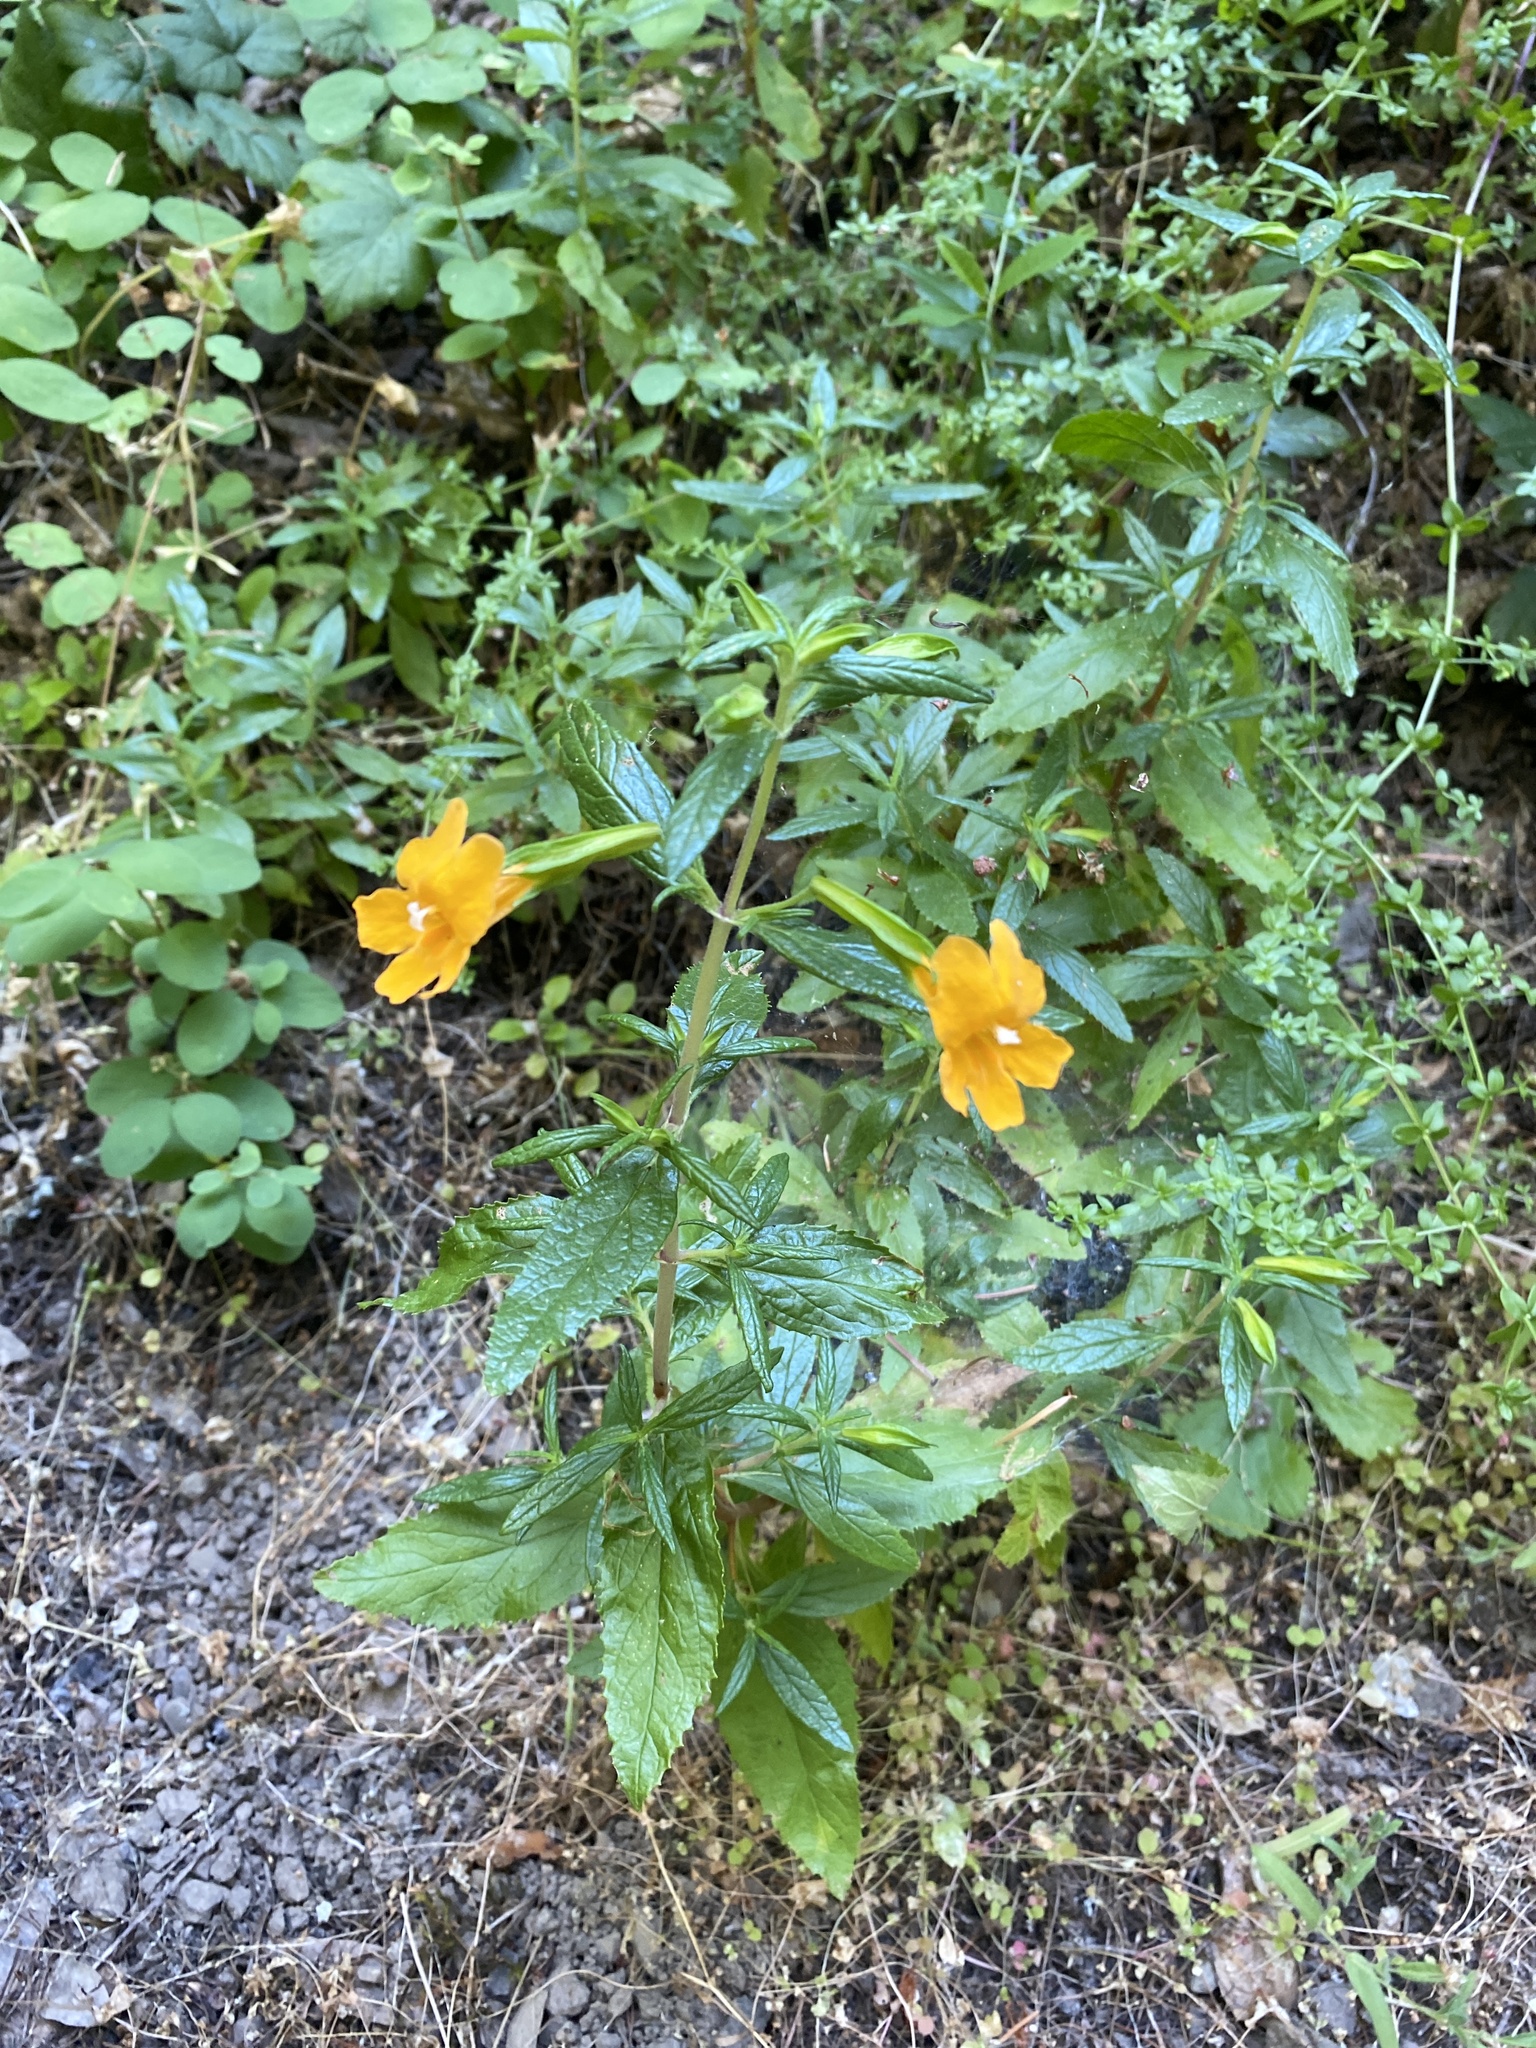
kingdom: Plantae
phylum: Tracheophyta
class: Magnoliopsida
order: Lamiales
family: Phrymaceae
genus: Diplacus
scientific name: Diplacus aurantiacus
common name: Bush monkey-flower
